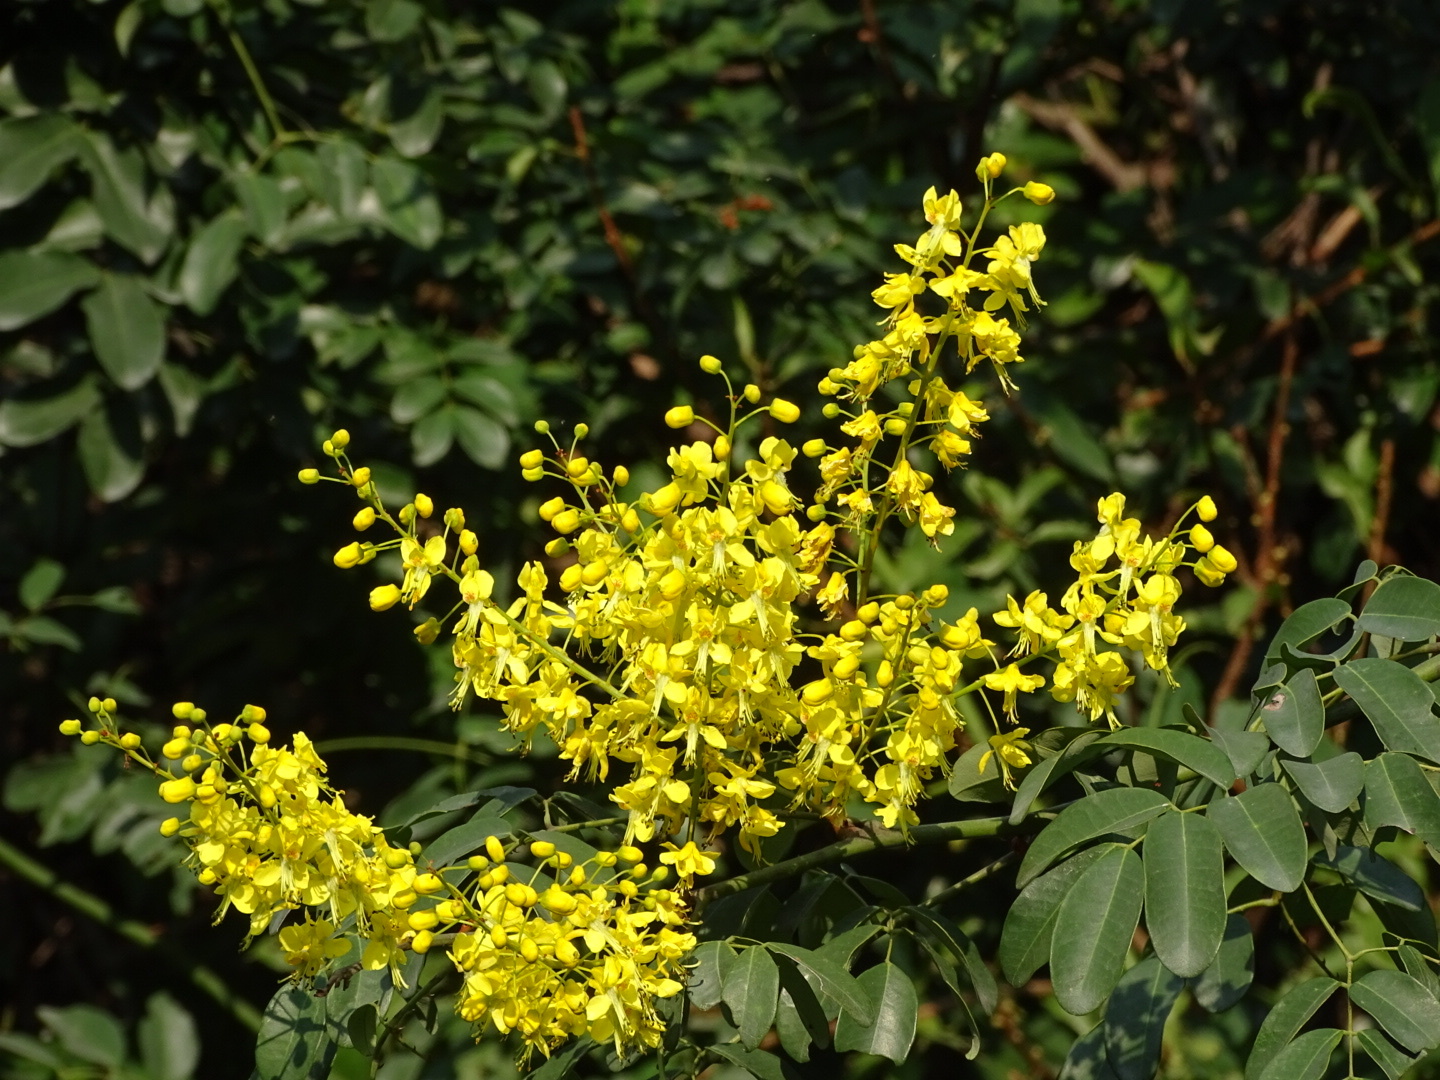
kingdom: Plantae
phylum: Tracheophyta
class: Magnoliopsida
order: Fabales
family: Fabaceae
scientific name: Fabaceae
